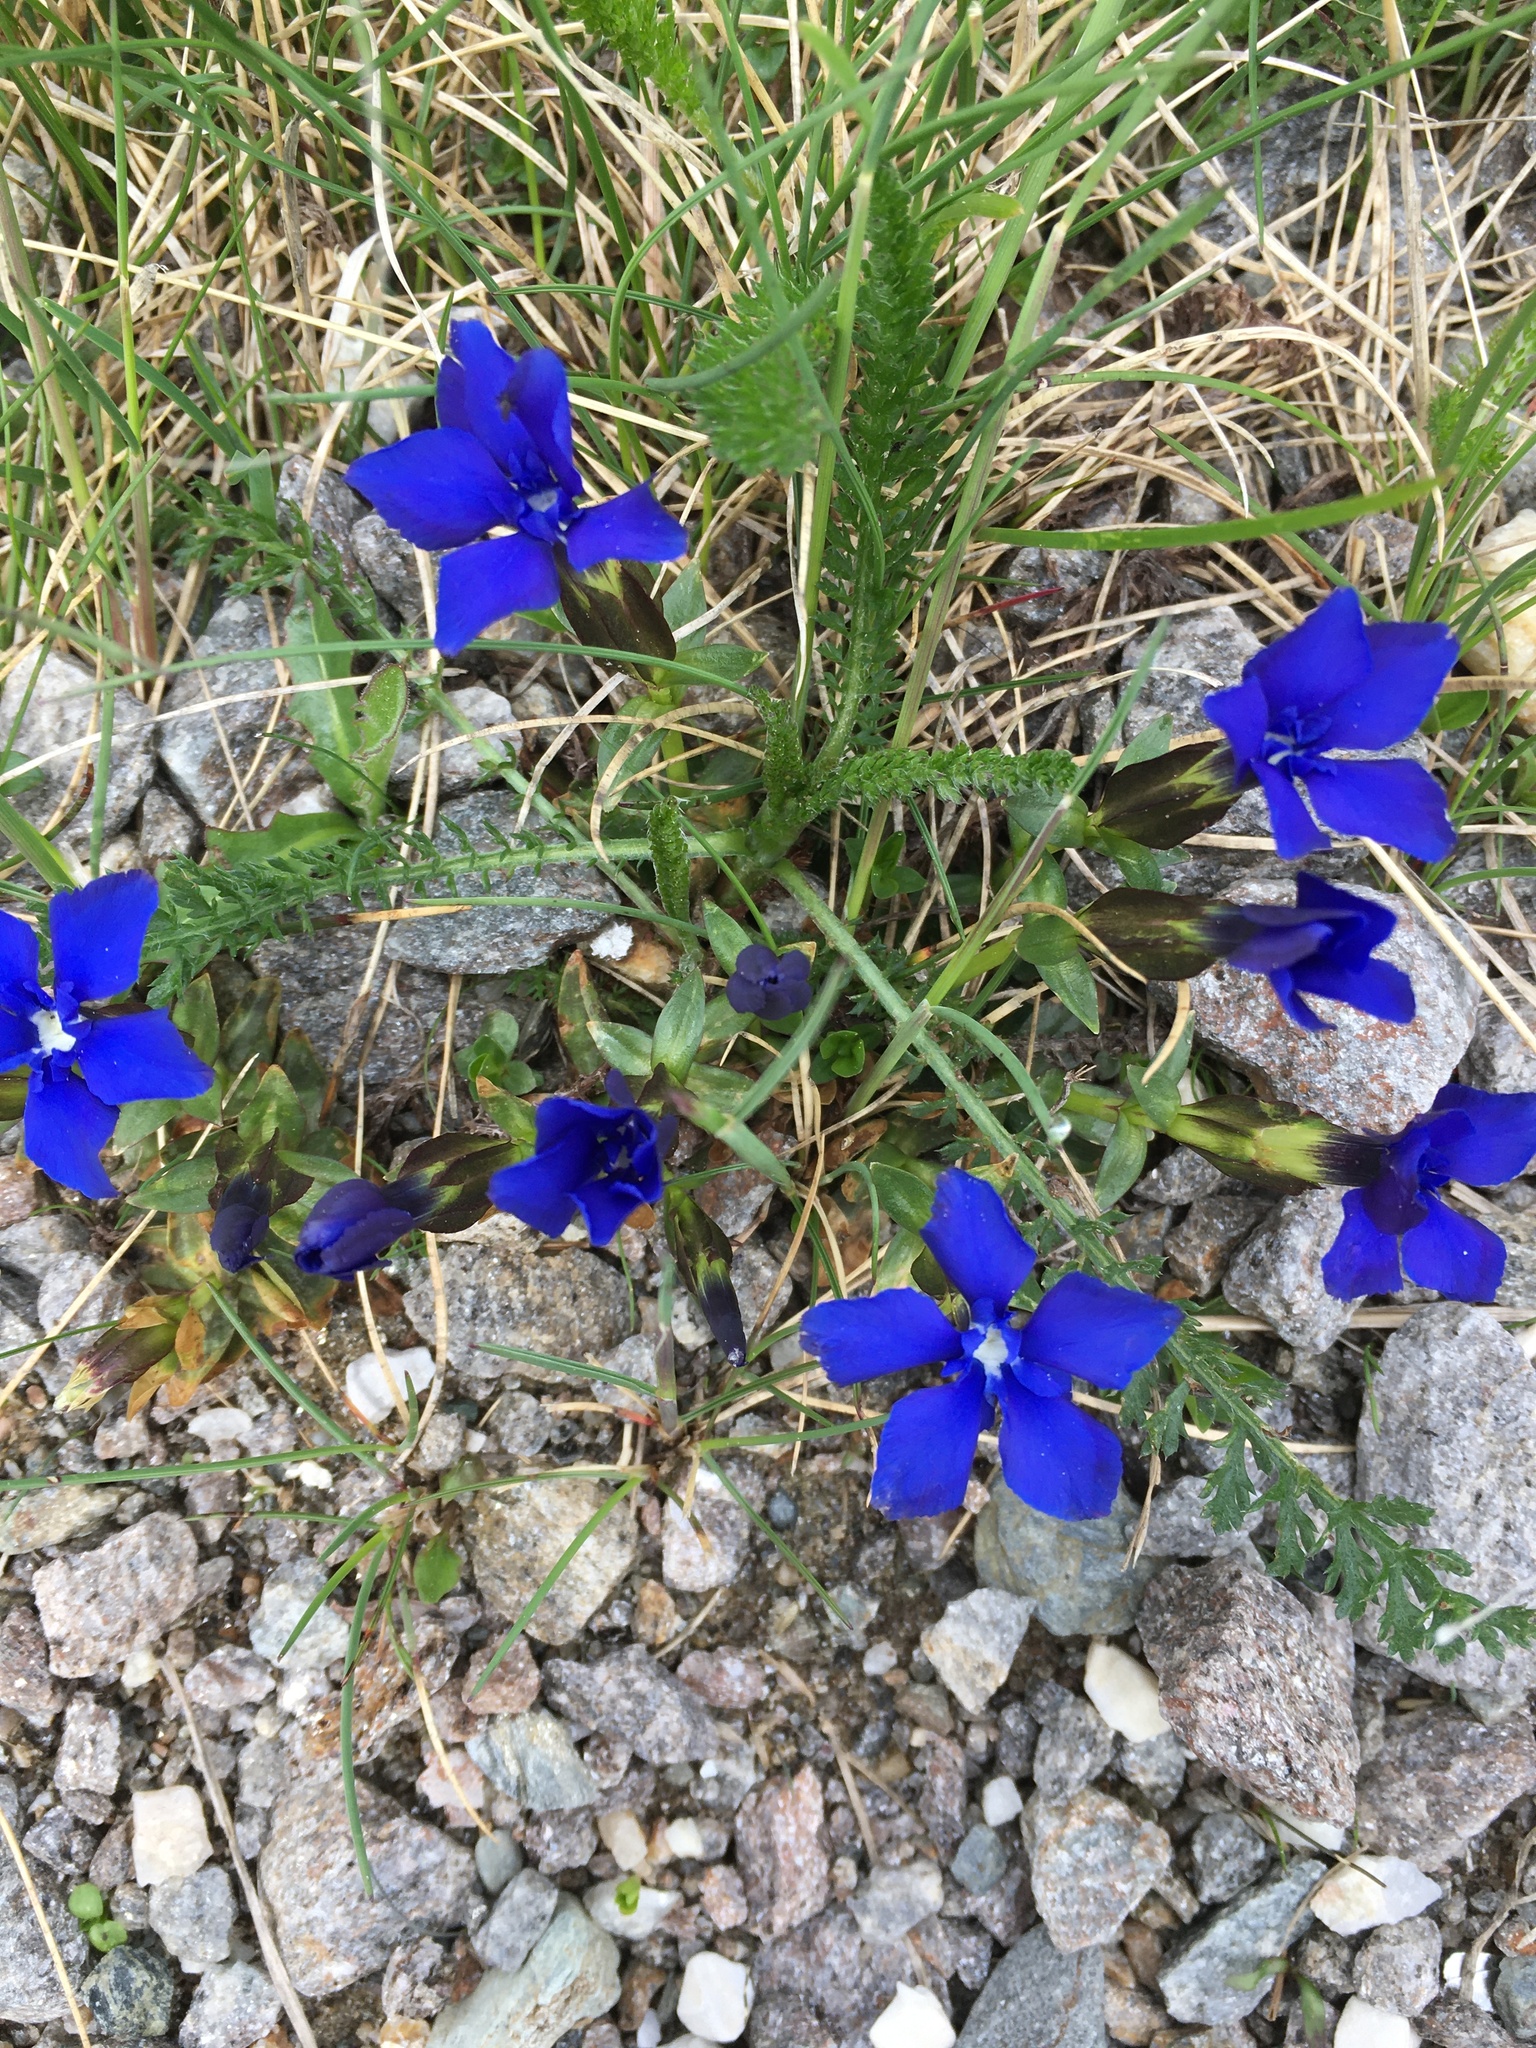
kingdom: Plantae
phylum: Tracheophyta
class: Magnoliopsida
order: Gentianales
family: Gentianaceae
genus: Gentiana
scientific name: Gentiana verna
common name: Spring gentian
